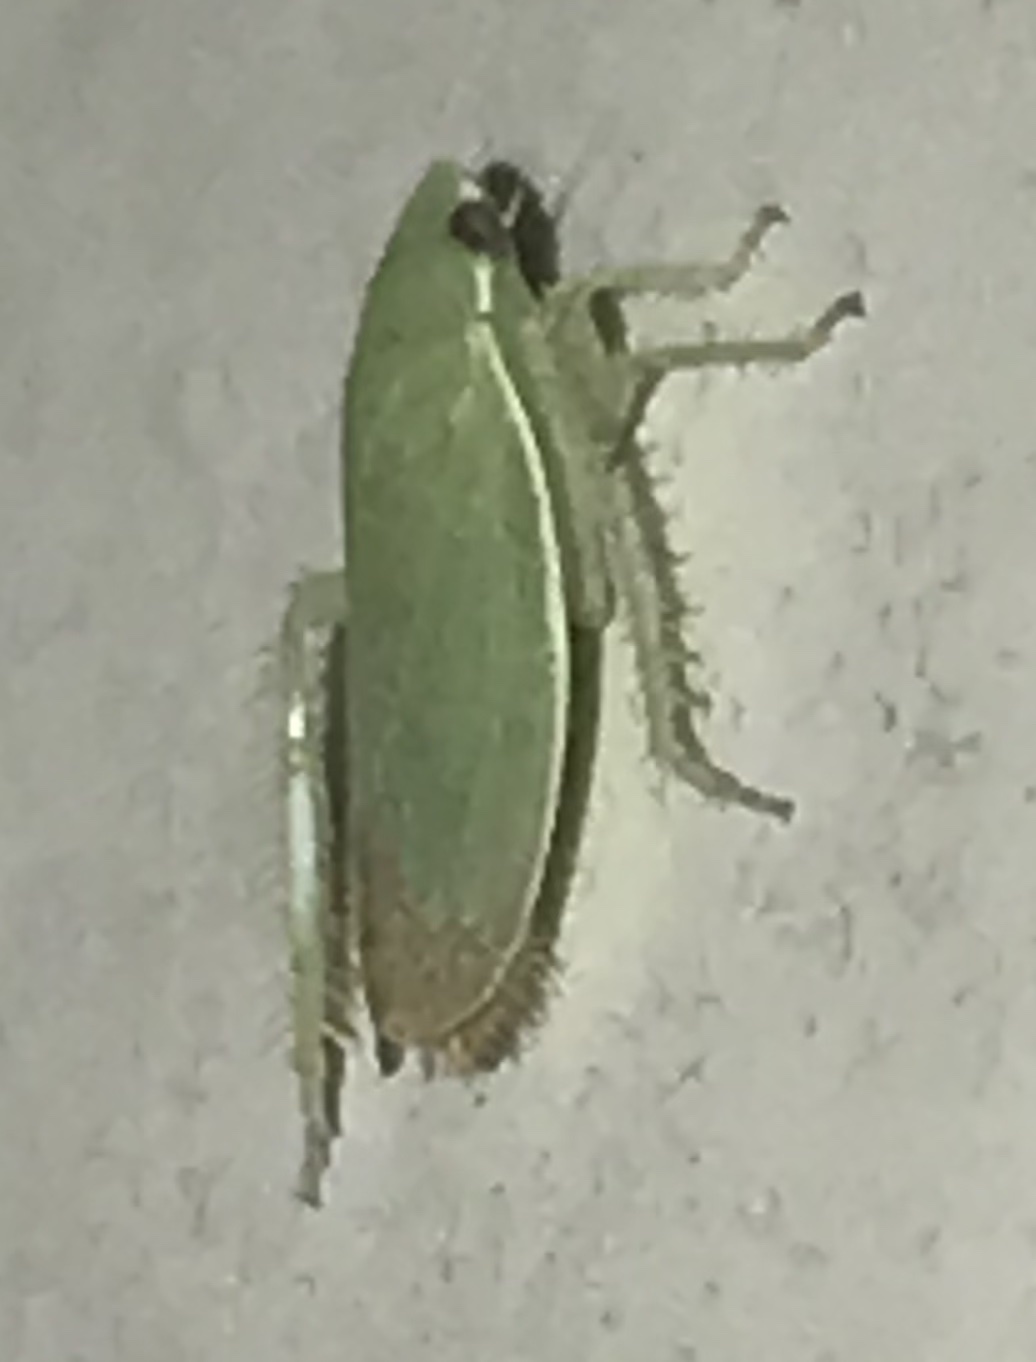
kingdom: Animalia
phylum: Arthropoda
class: Insecta
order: Hemiptera
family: Cicadellidae
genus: Memnonia
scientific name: Memnonia flavida
